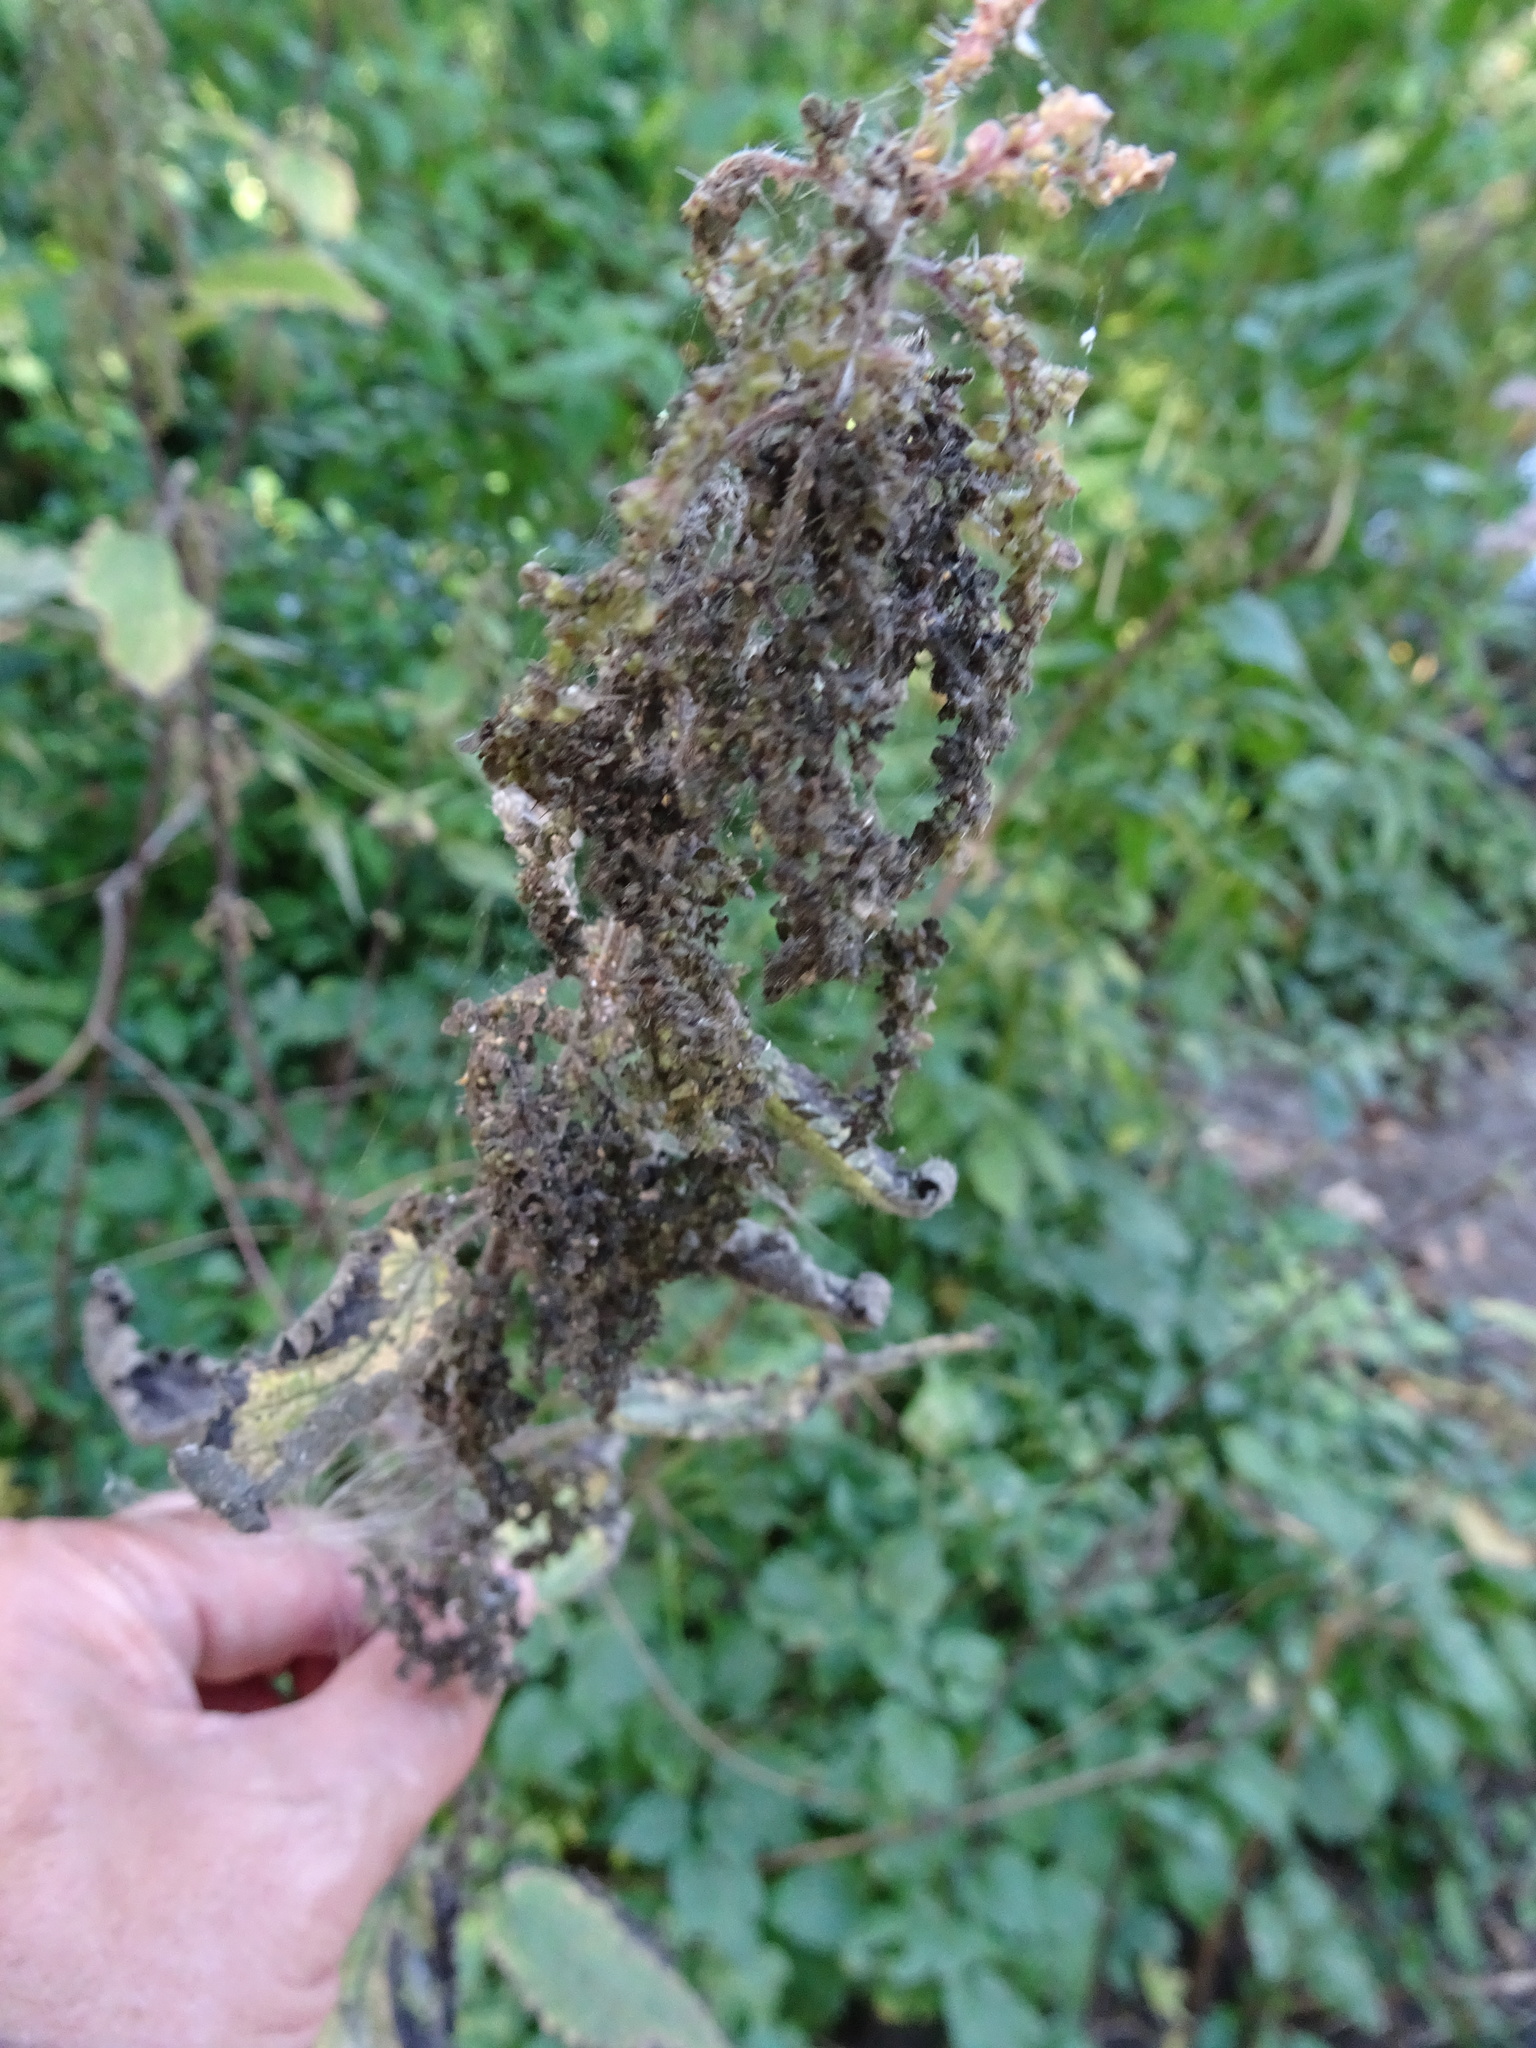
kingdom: Plantae
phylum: Tracheophyta
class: Magnoliopsida
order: Rosales
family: Urticaceae
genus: Urtica
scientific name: Urtica dioica
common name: Common nettle
